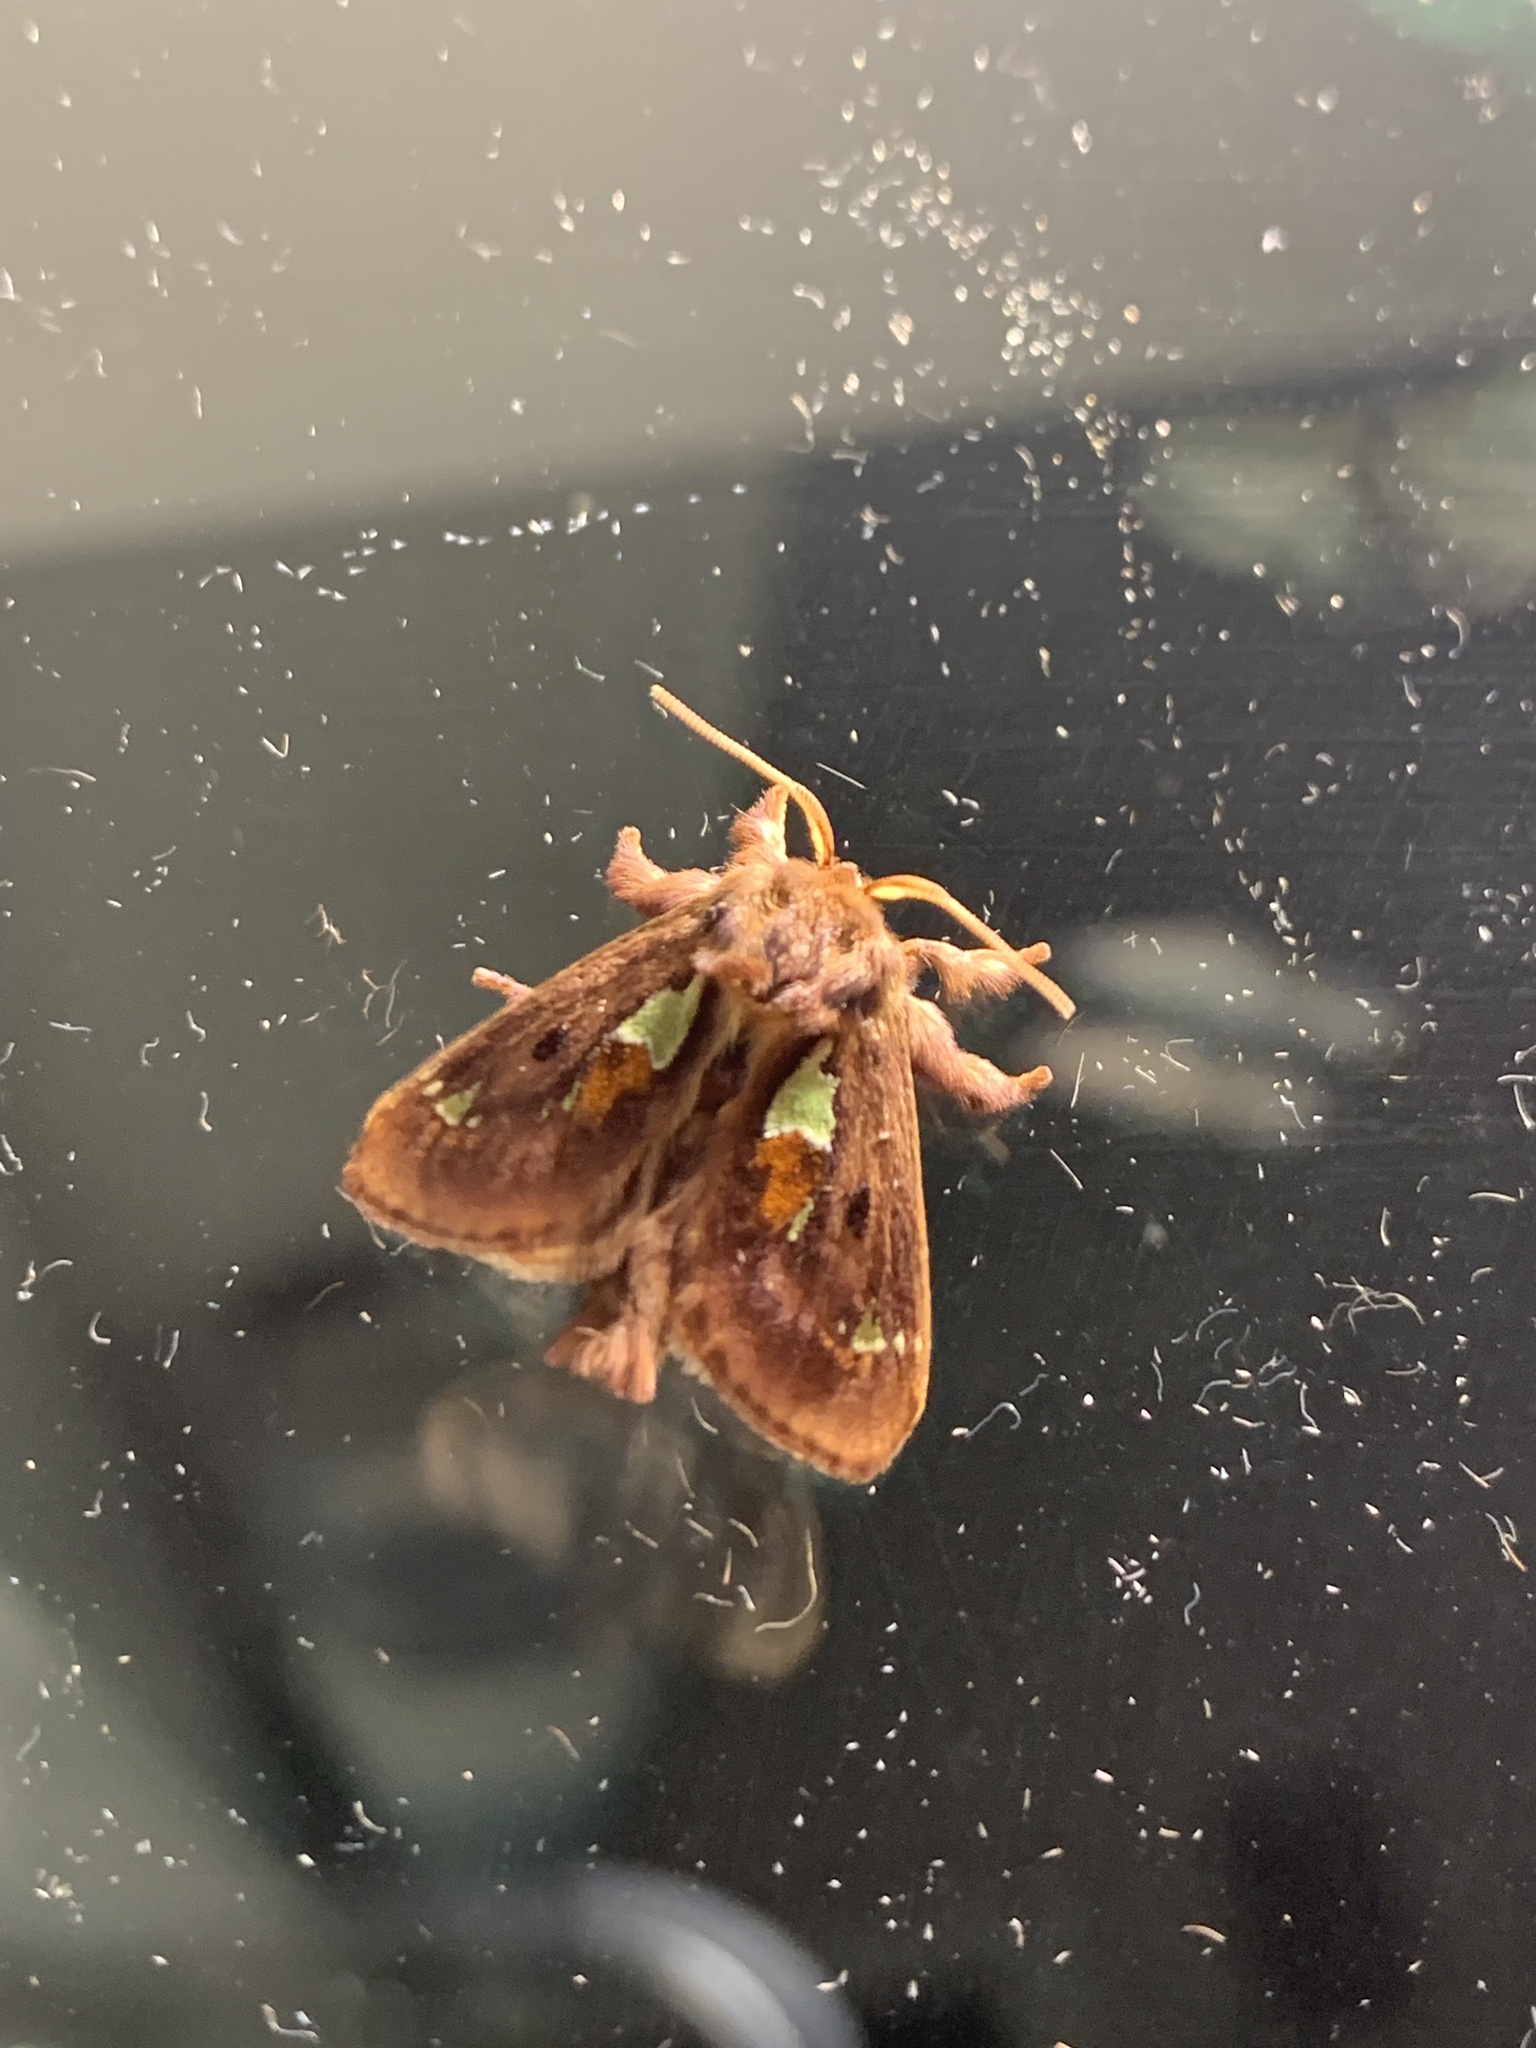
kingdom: Animalia
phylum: Arthropoda
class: Insecta
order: Lepidoptera
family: Limacodidae
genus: Euclea
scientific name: Euclea delphinii
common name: Spiny oak-slug moth
